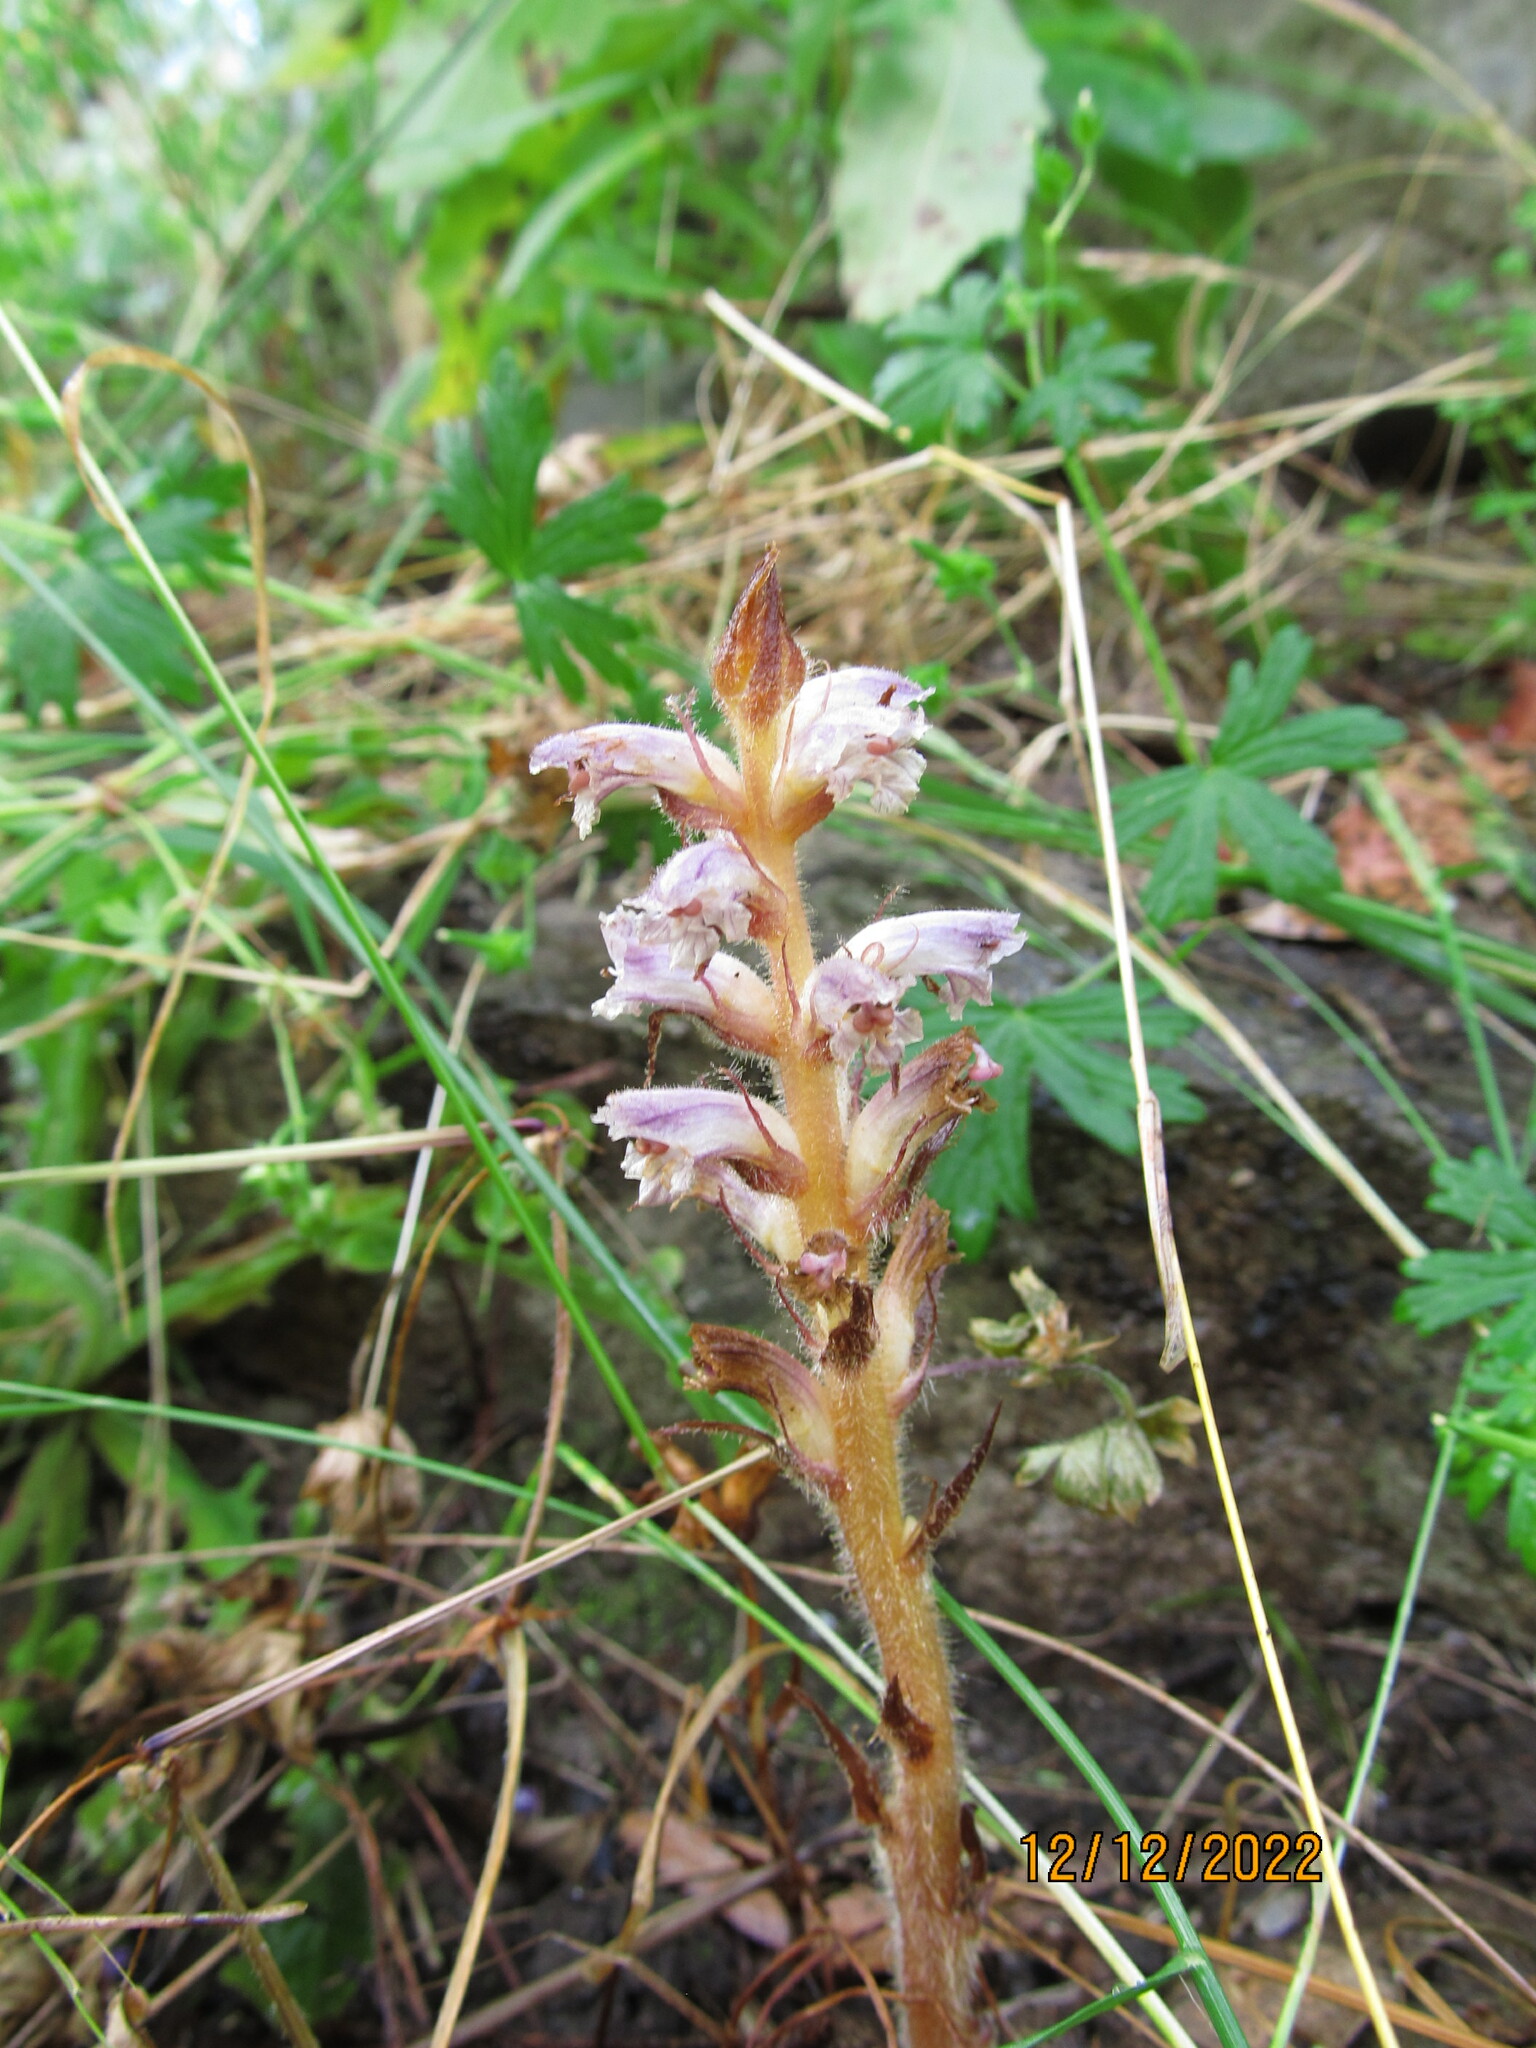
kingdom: Plantae
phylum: Tracheophyta
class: Magnoliopsida
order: Lamiales
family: Orobanchaceae
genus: Orobanche
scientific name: Orobanche minor
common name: Common broomrape
